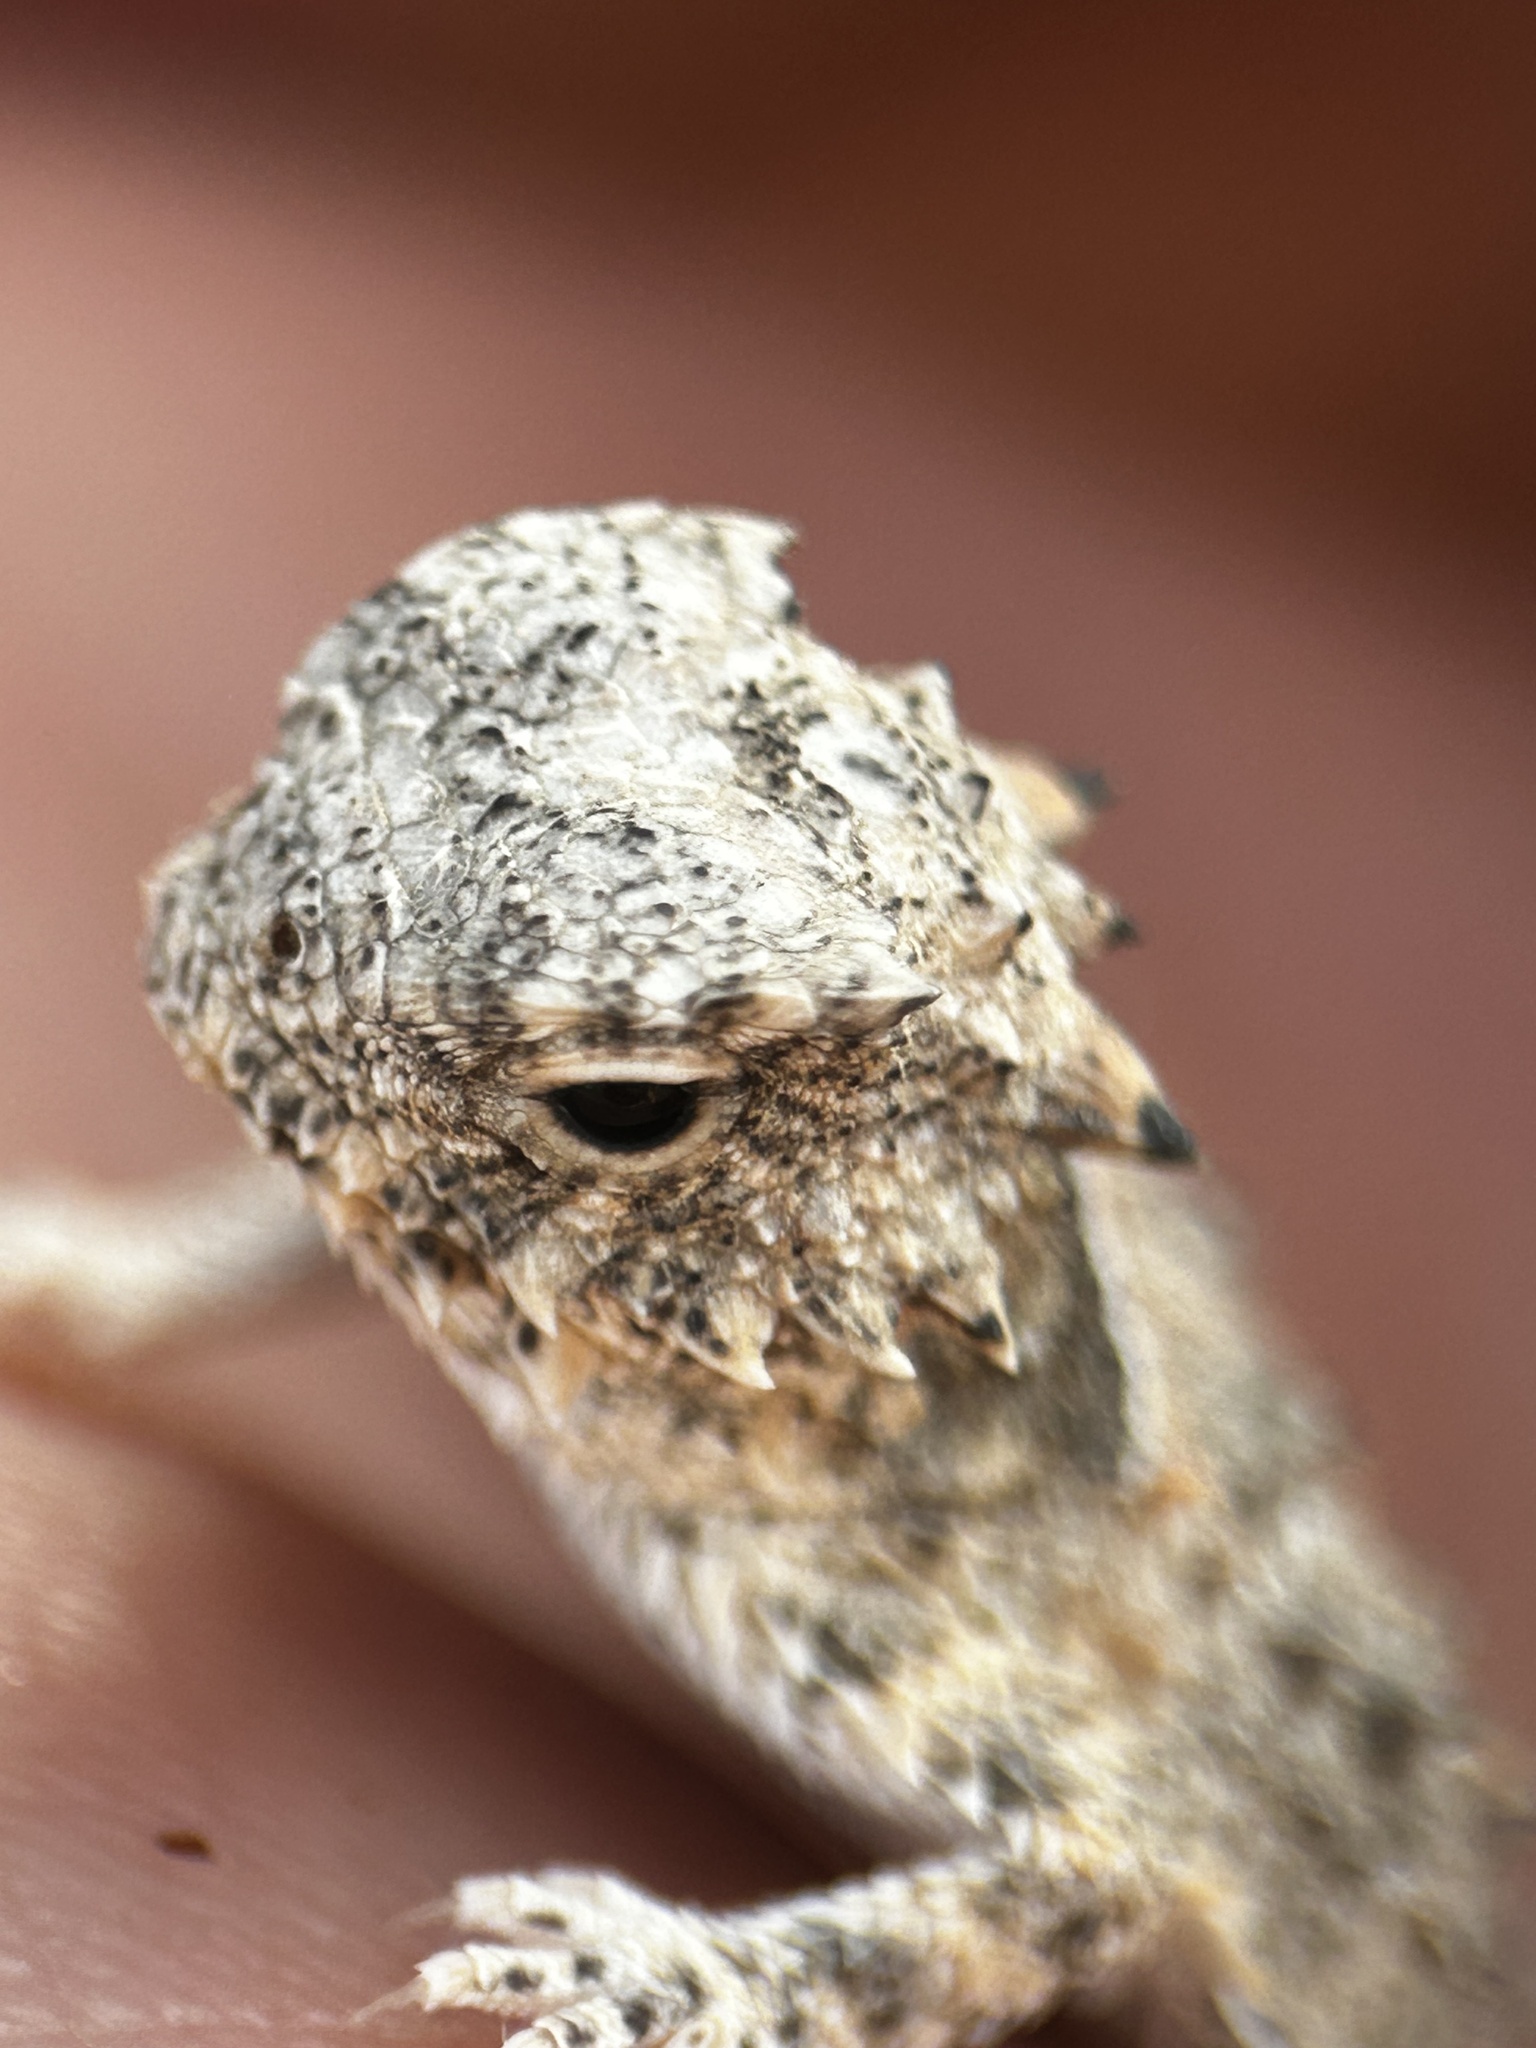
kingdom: Animalia
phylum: Chordata
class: Squamata
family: Phrynosomatidae
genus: Phrynosoma
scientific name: Phrynosoma coronatum
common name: Blainville horned lizard
